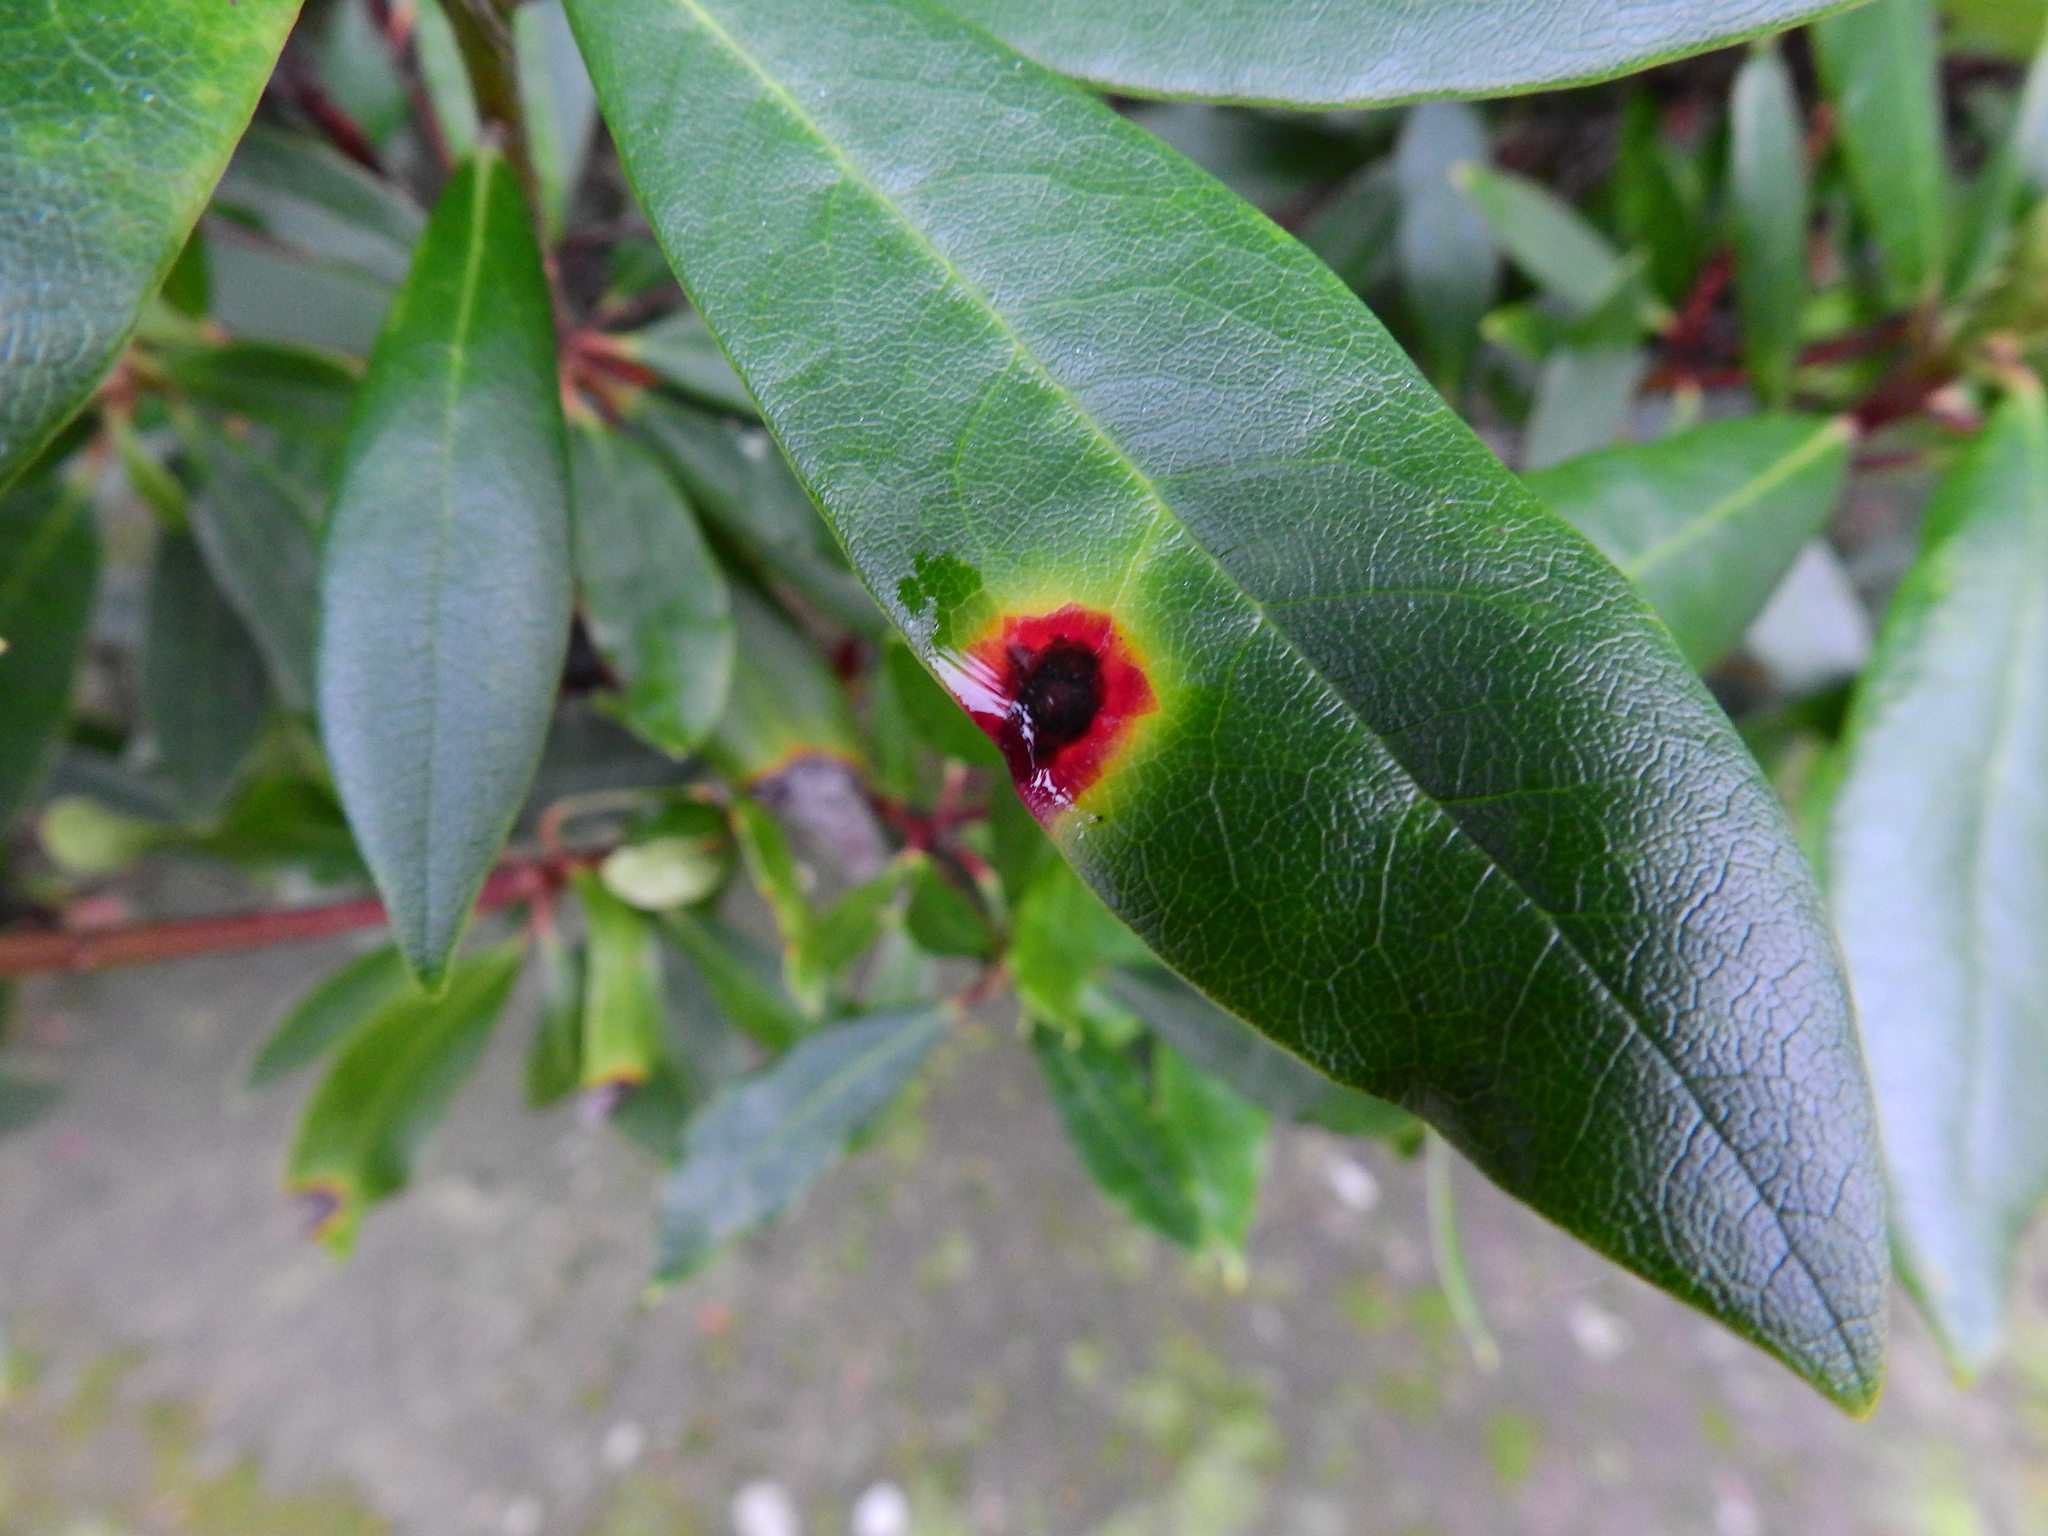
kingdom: Fungi
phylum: Ascomycota
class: Dothideomycetes
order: Mycosphaerellales
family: Mycosphaerellaceae
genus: Chuppomyces
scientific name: Chuppomyces handelii
